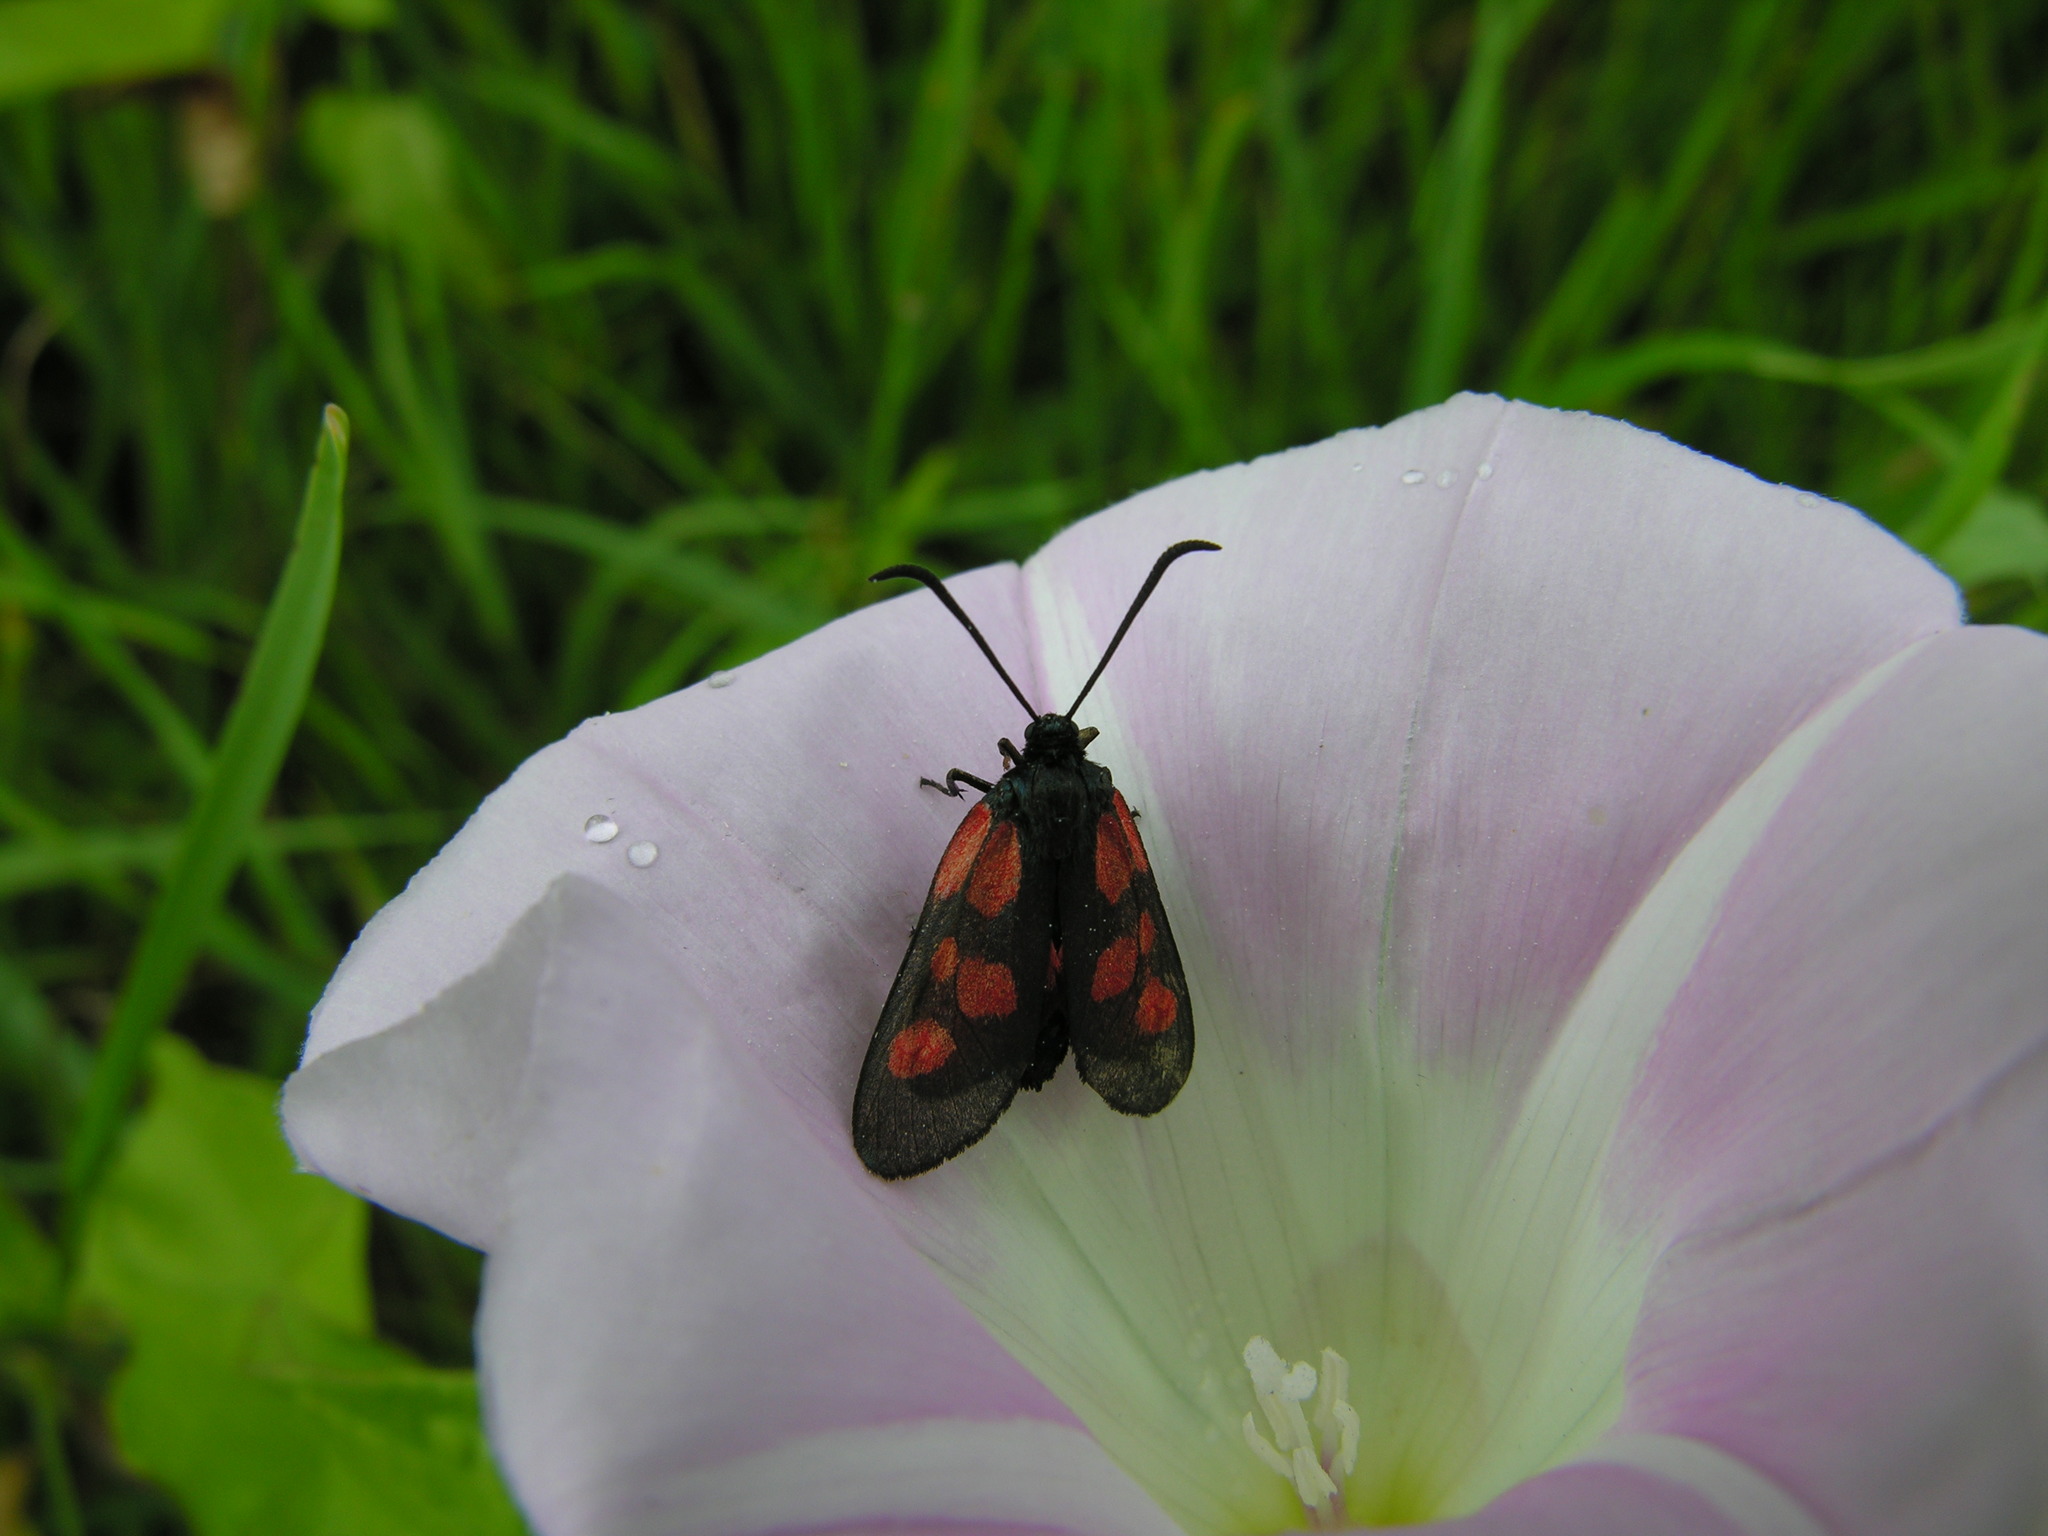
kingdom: Animalia
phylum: Arthropoda
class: Insecta
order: Lepidoptera
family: Zygaenidae
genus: Zygaena
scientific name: Zygaena viciae
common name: New forest burnet
